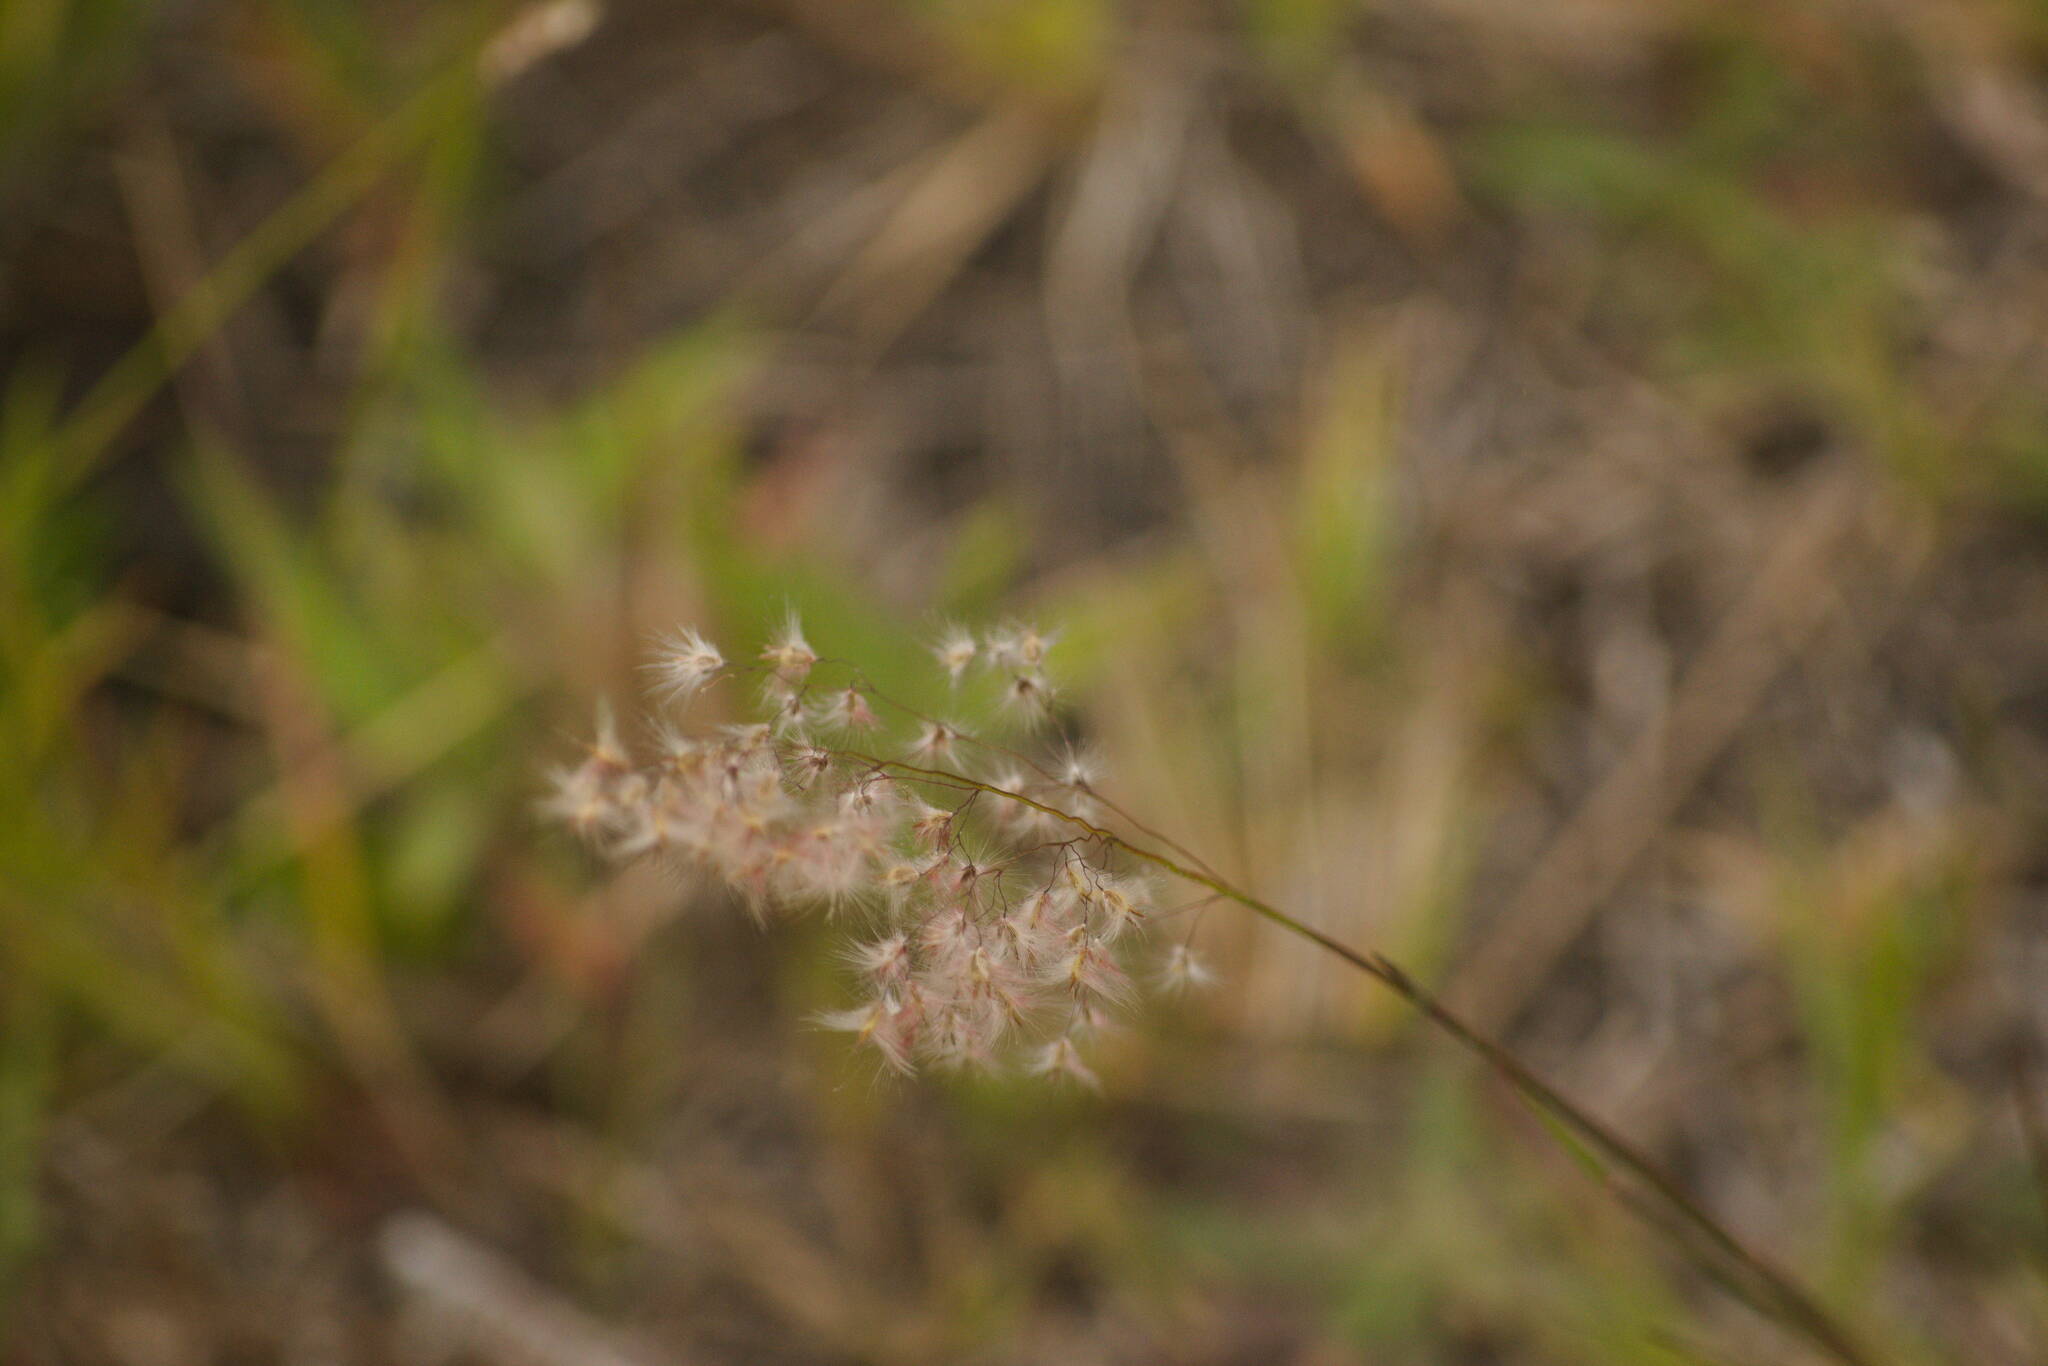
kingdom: Plantae
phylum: Tracheophyta
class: Liliopsida
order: Poales
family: Poaceae
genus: Melinis
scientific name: Melinis repens
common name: Rose natal grass
